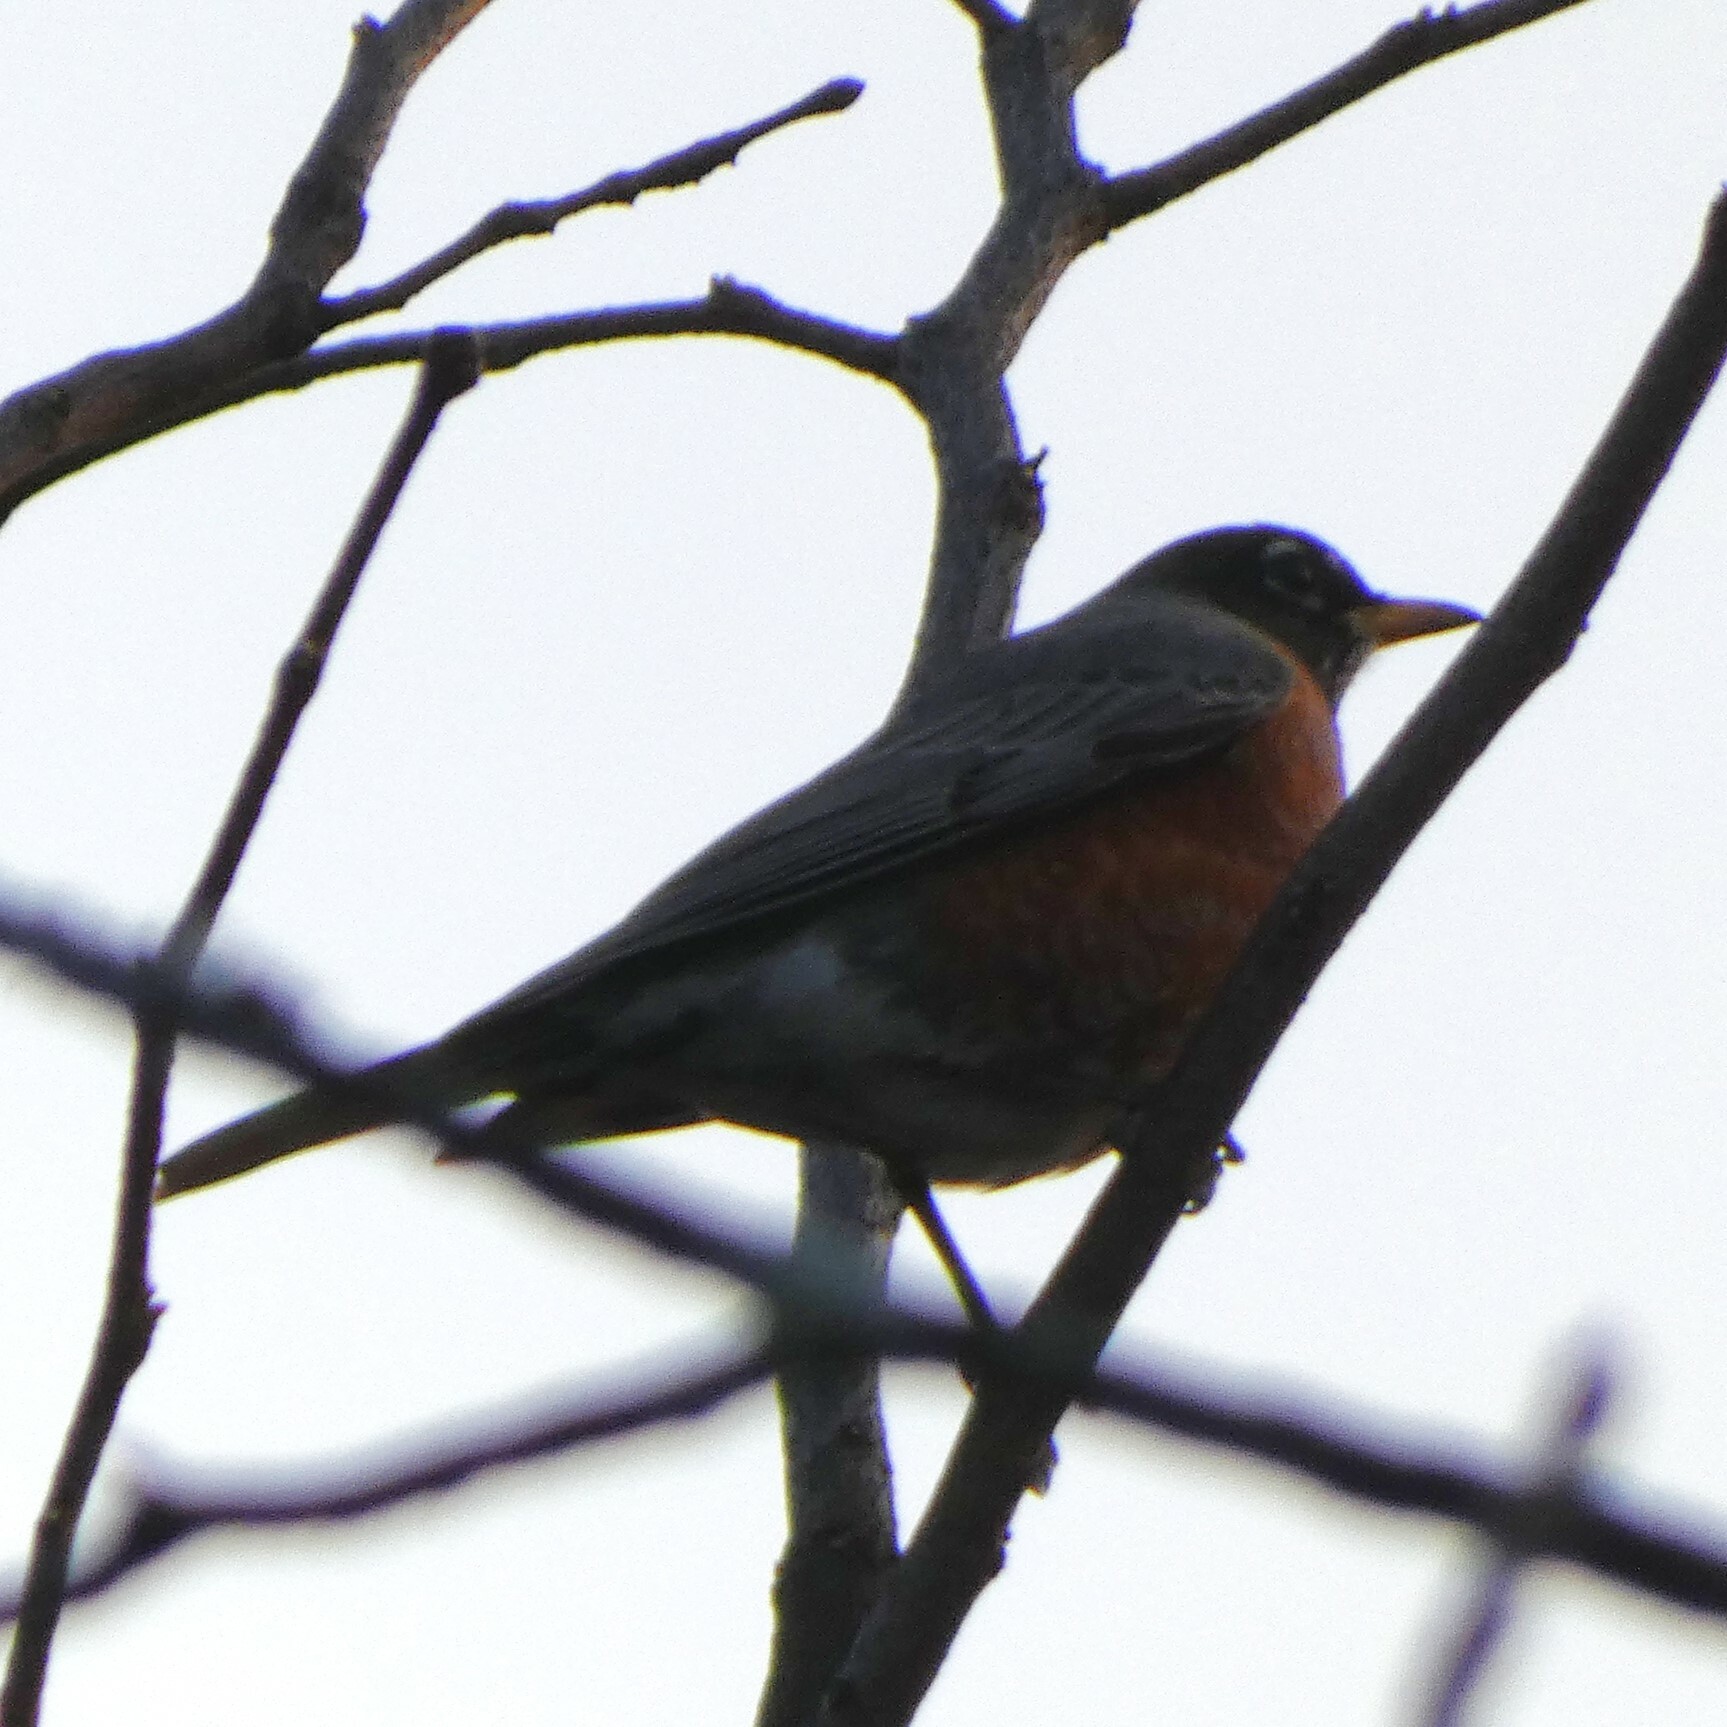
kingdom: Animalia
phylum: Chordata
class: Aves
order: Passeriformes
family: Turdidae
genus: Turdus
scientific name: Turdus migratorius
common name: American robin
